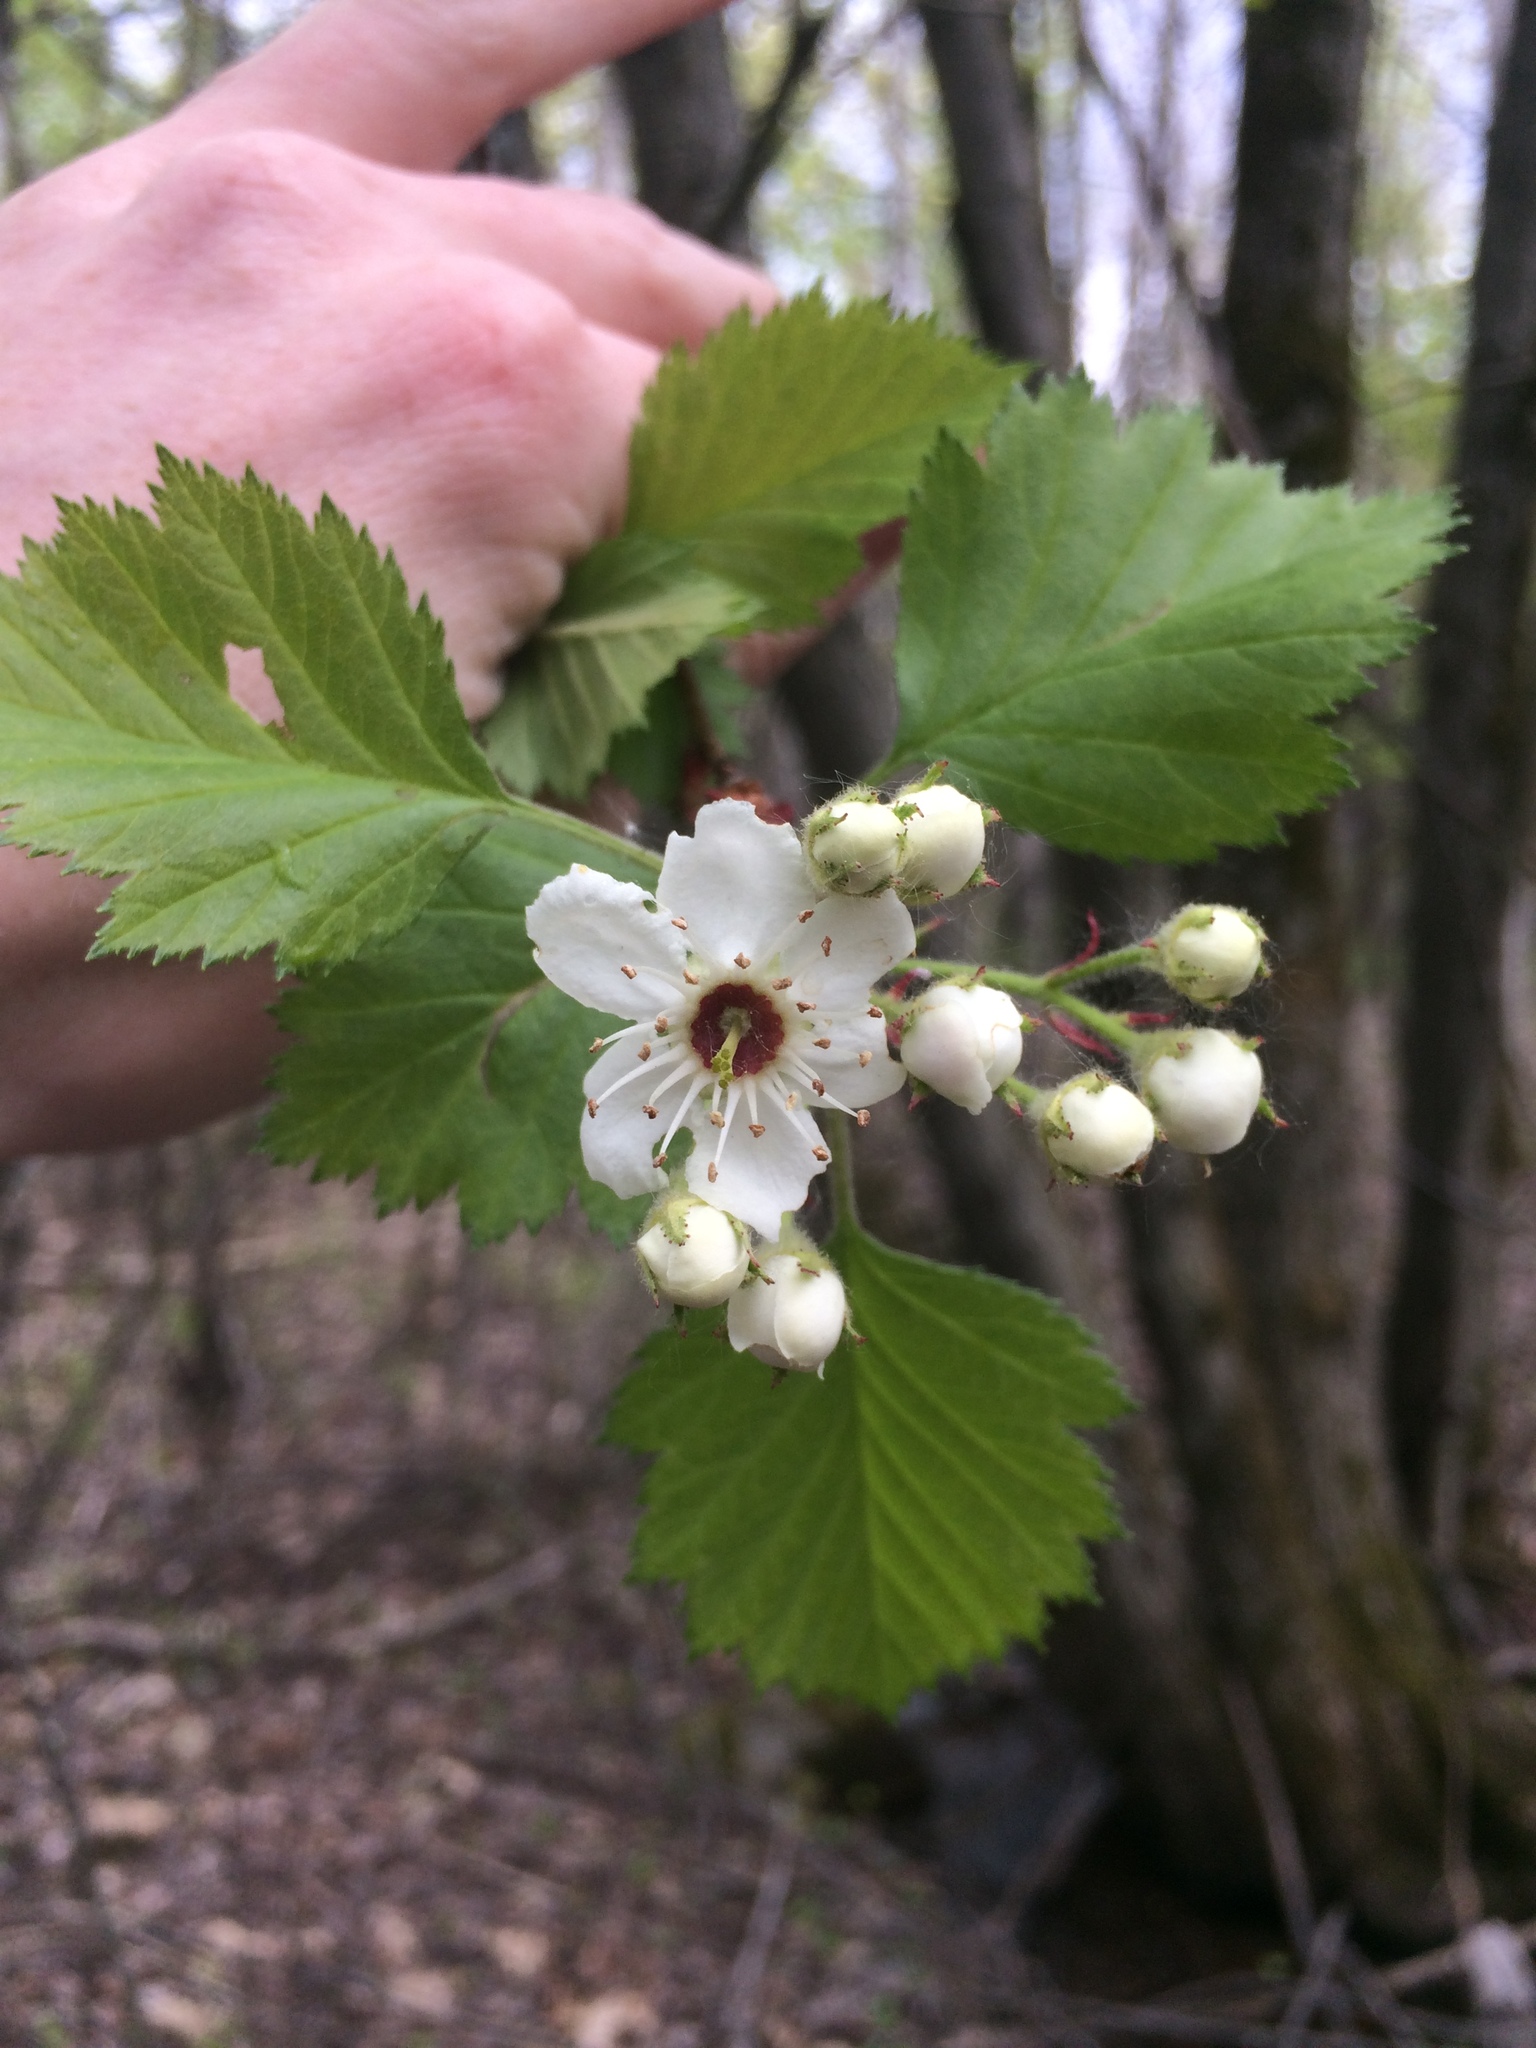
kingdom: Plantae
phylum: Tracheophyta
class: Magnoliopsida
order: Rosales
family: Rosaceae
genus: Crataegus
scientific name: Crataegus submollis
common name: Hairy cockspurthorn
